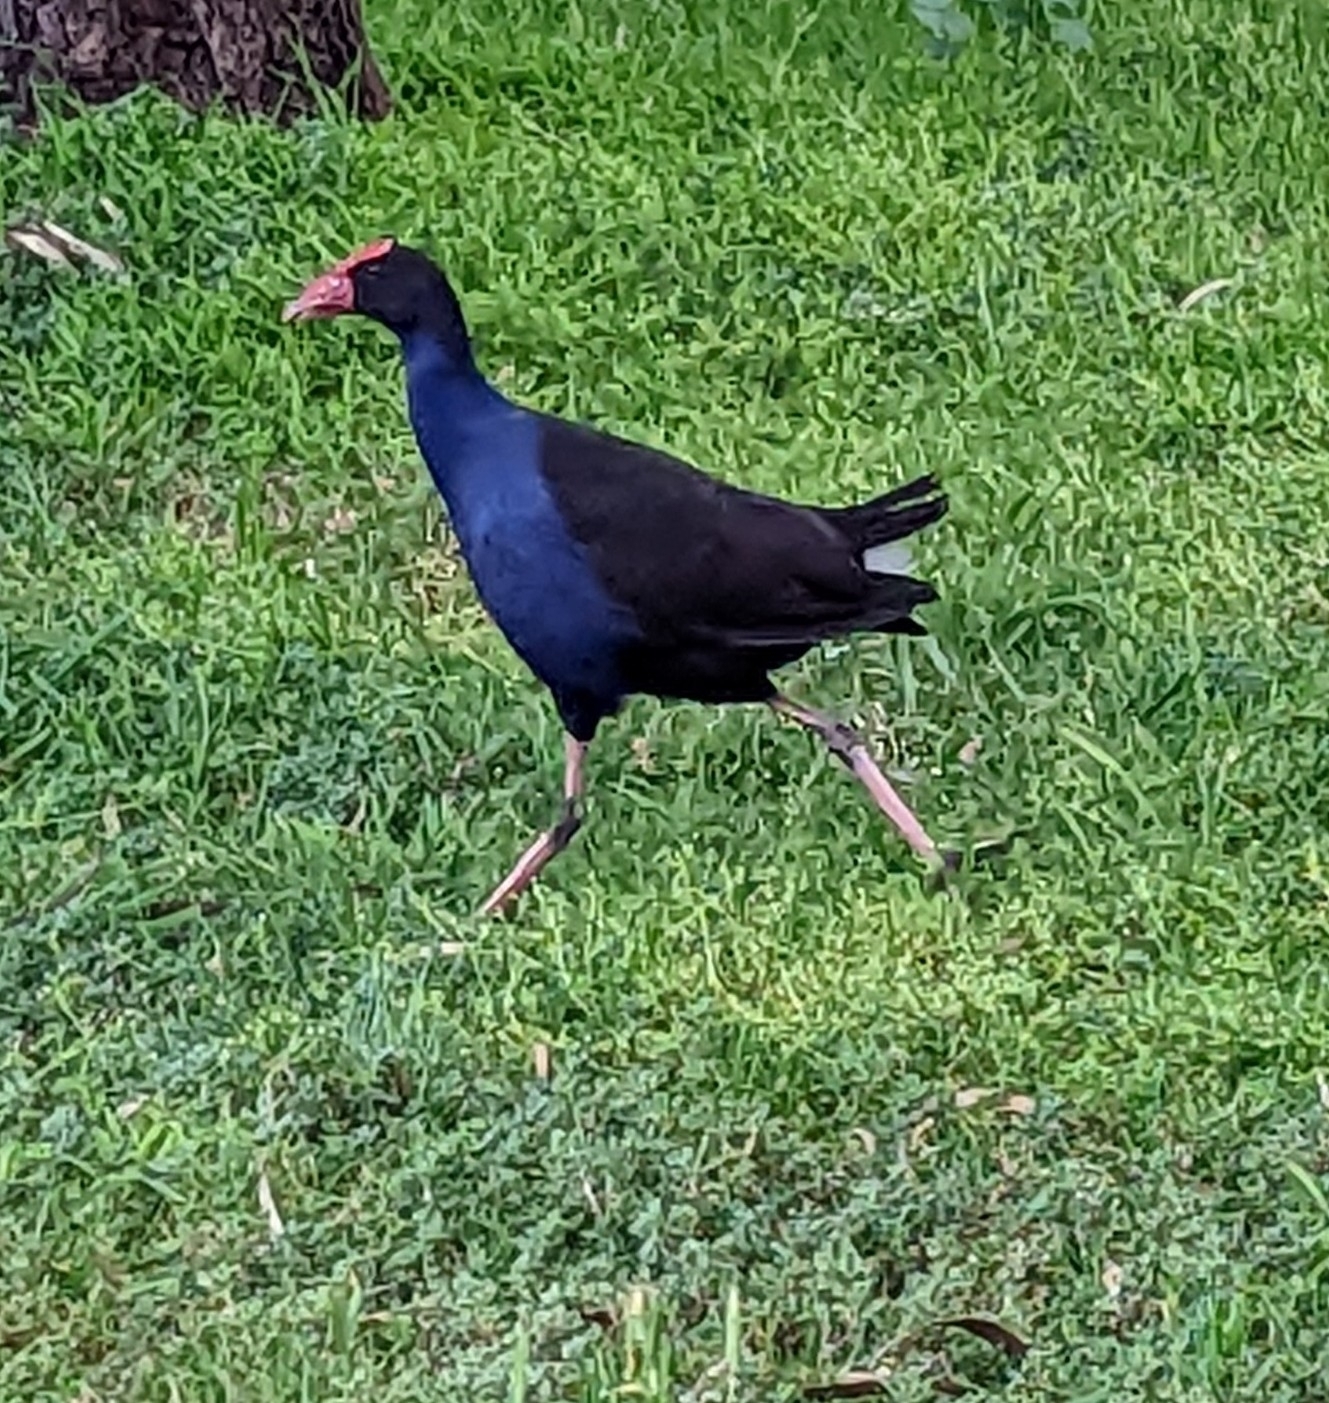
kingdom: Animalia
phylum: Chordata
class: Aves
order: Gruiformes
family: Rallidae
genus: Porphyrio
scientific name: Porphyrio melanotus
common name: Australasian swamphen
